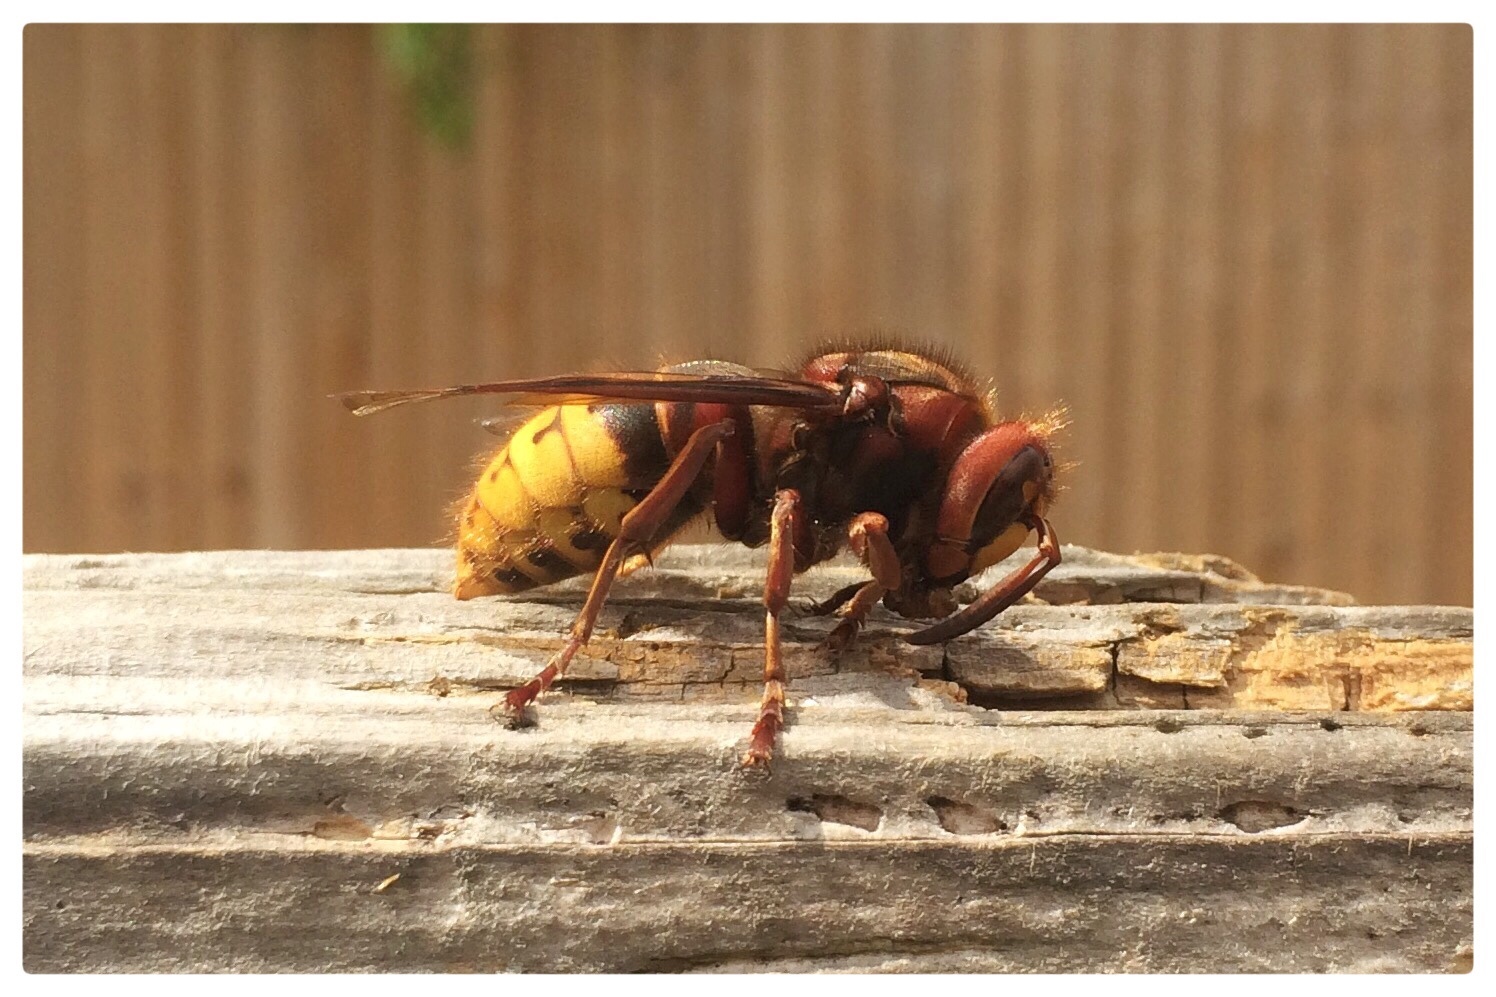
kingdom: Animalia
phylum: Arthropoda
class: Insecta
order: Hymenoptera
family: Vespidae
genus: Vespa
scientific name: Vespa crabro
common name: Hornet
